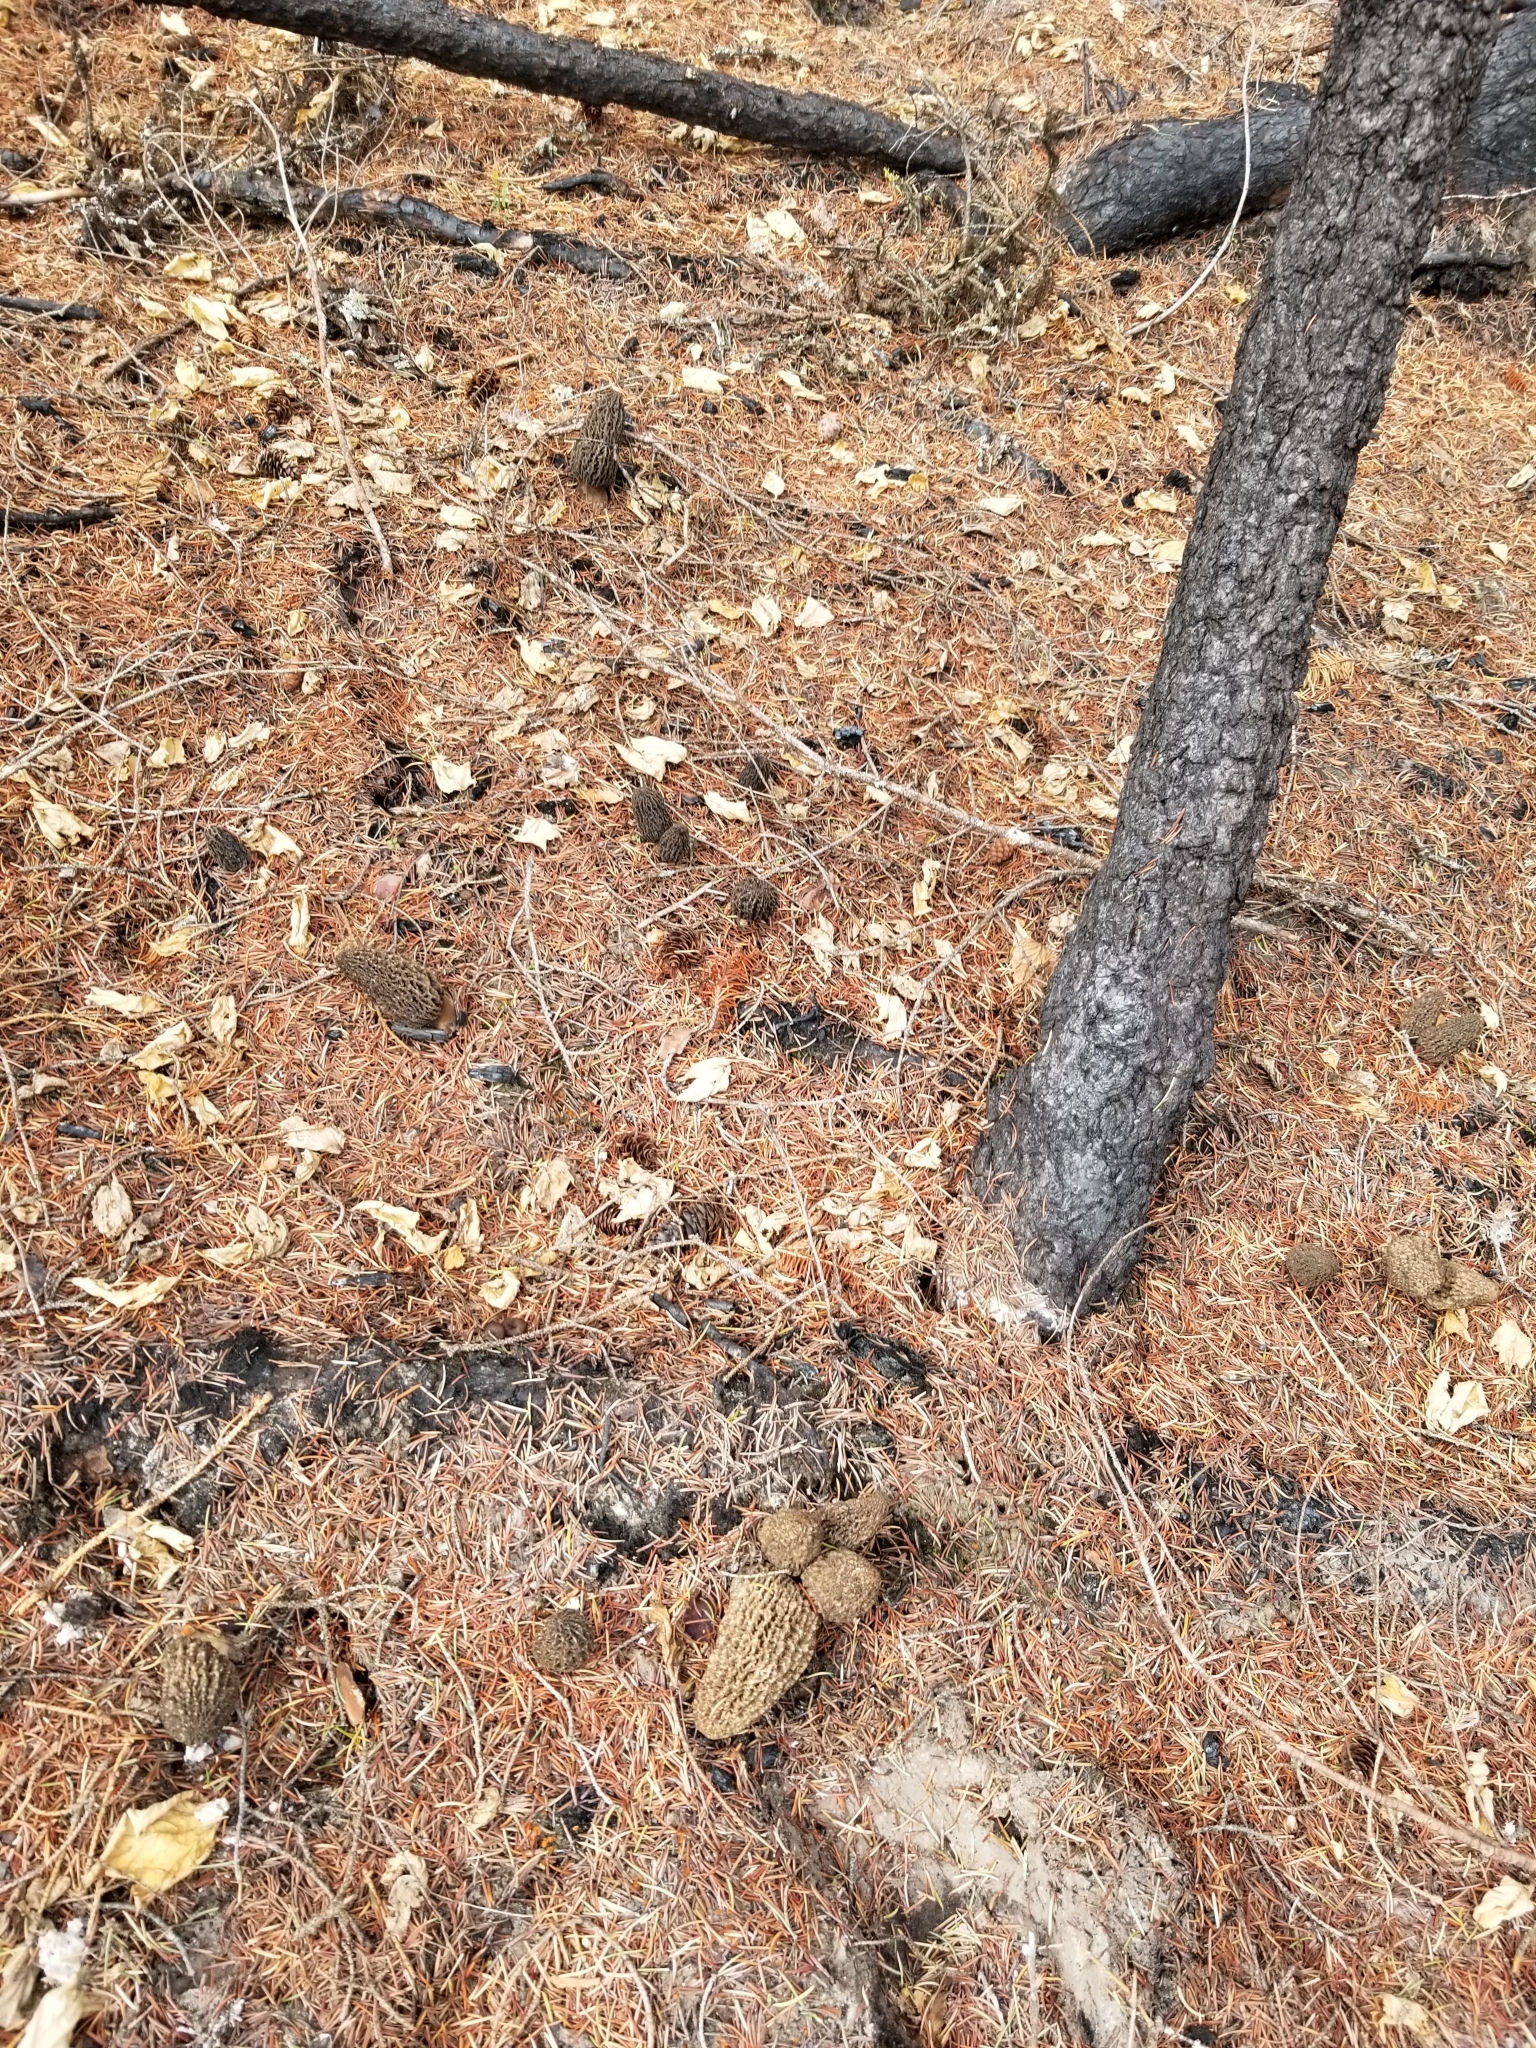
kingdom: Fungi
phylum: Ascomycota
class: Pezizomycetes
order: Pezizales
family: Morchellaceae
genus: Morchella
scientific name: Morchella tomentosa
